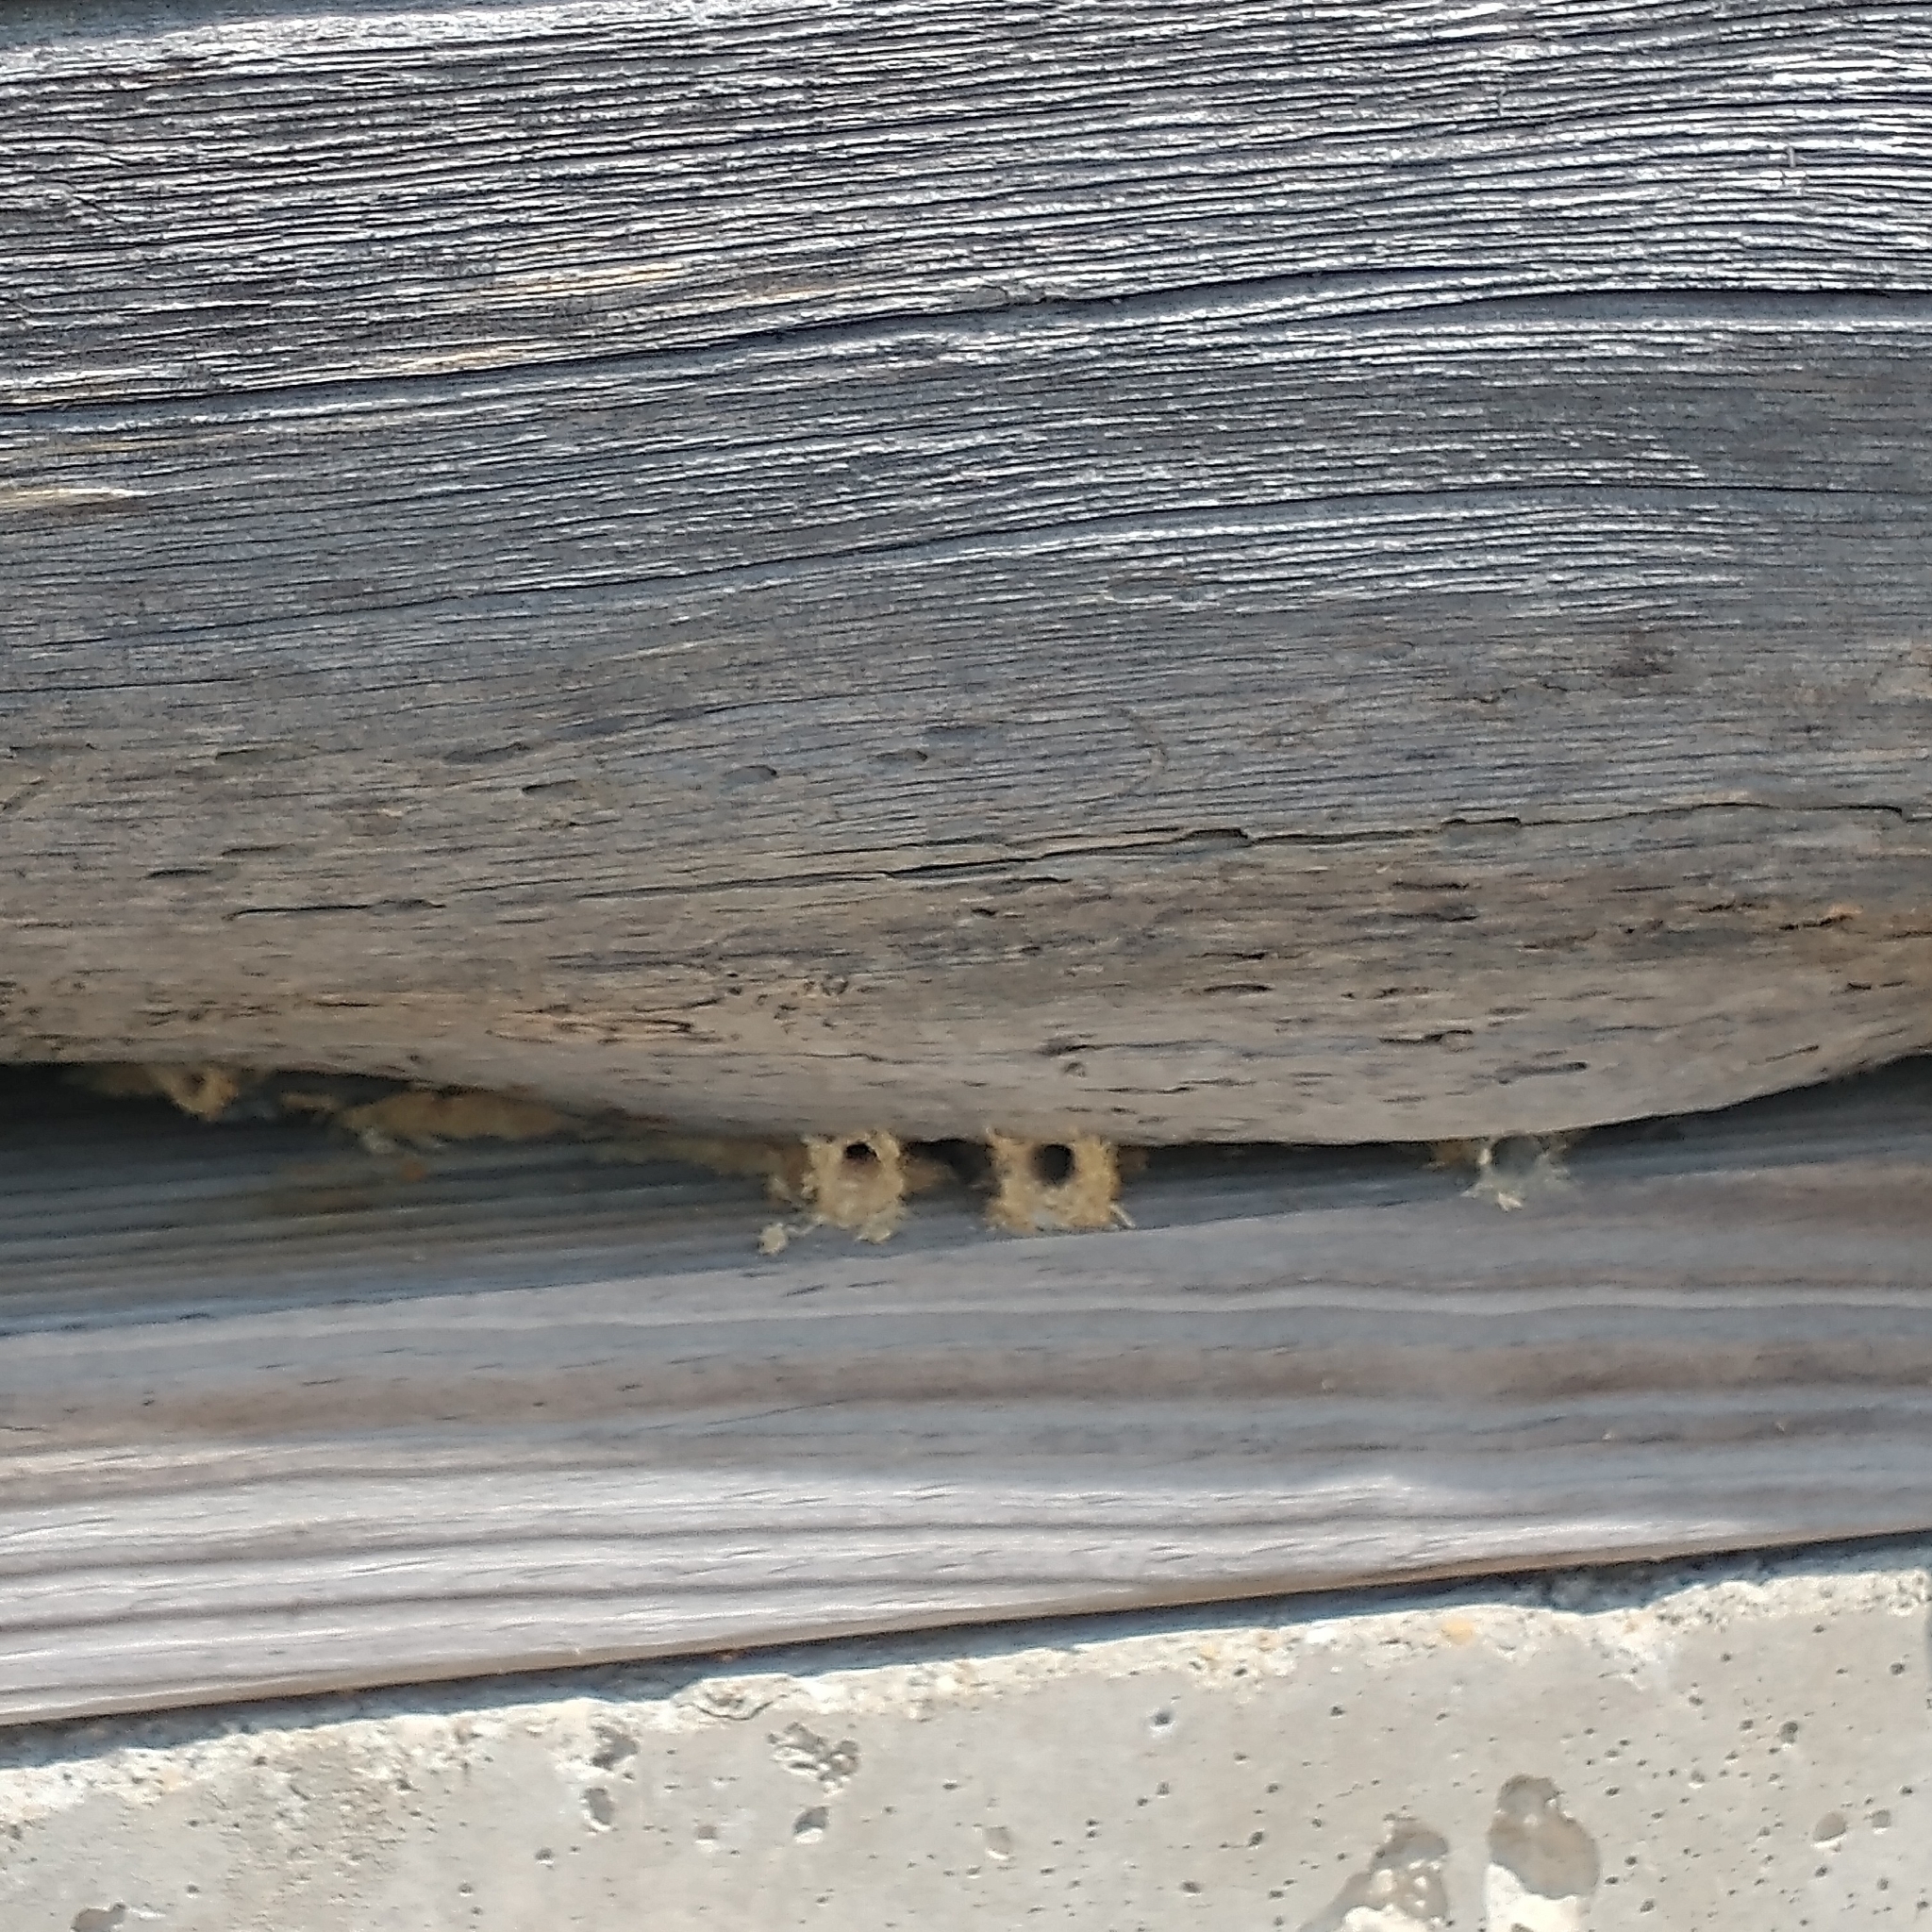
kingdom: Animalia
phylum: Arthropoda
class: Insecta
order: Hymenoptera
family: Eumenidae
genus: Monobia
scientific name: Monobia quadridens
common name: Four-toothed mason wasp
